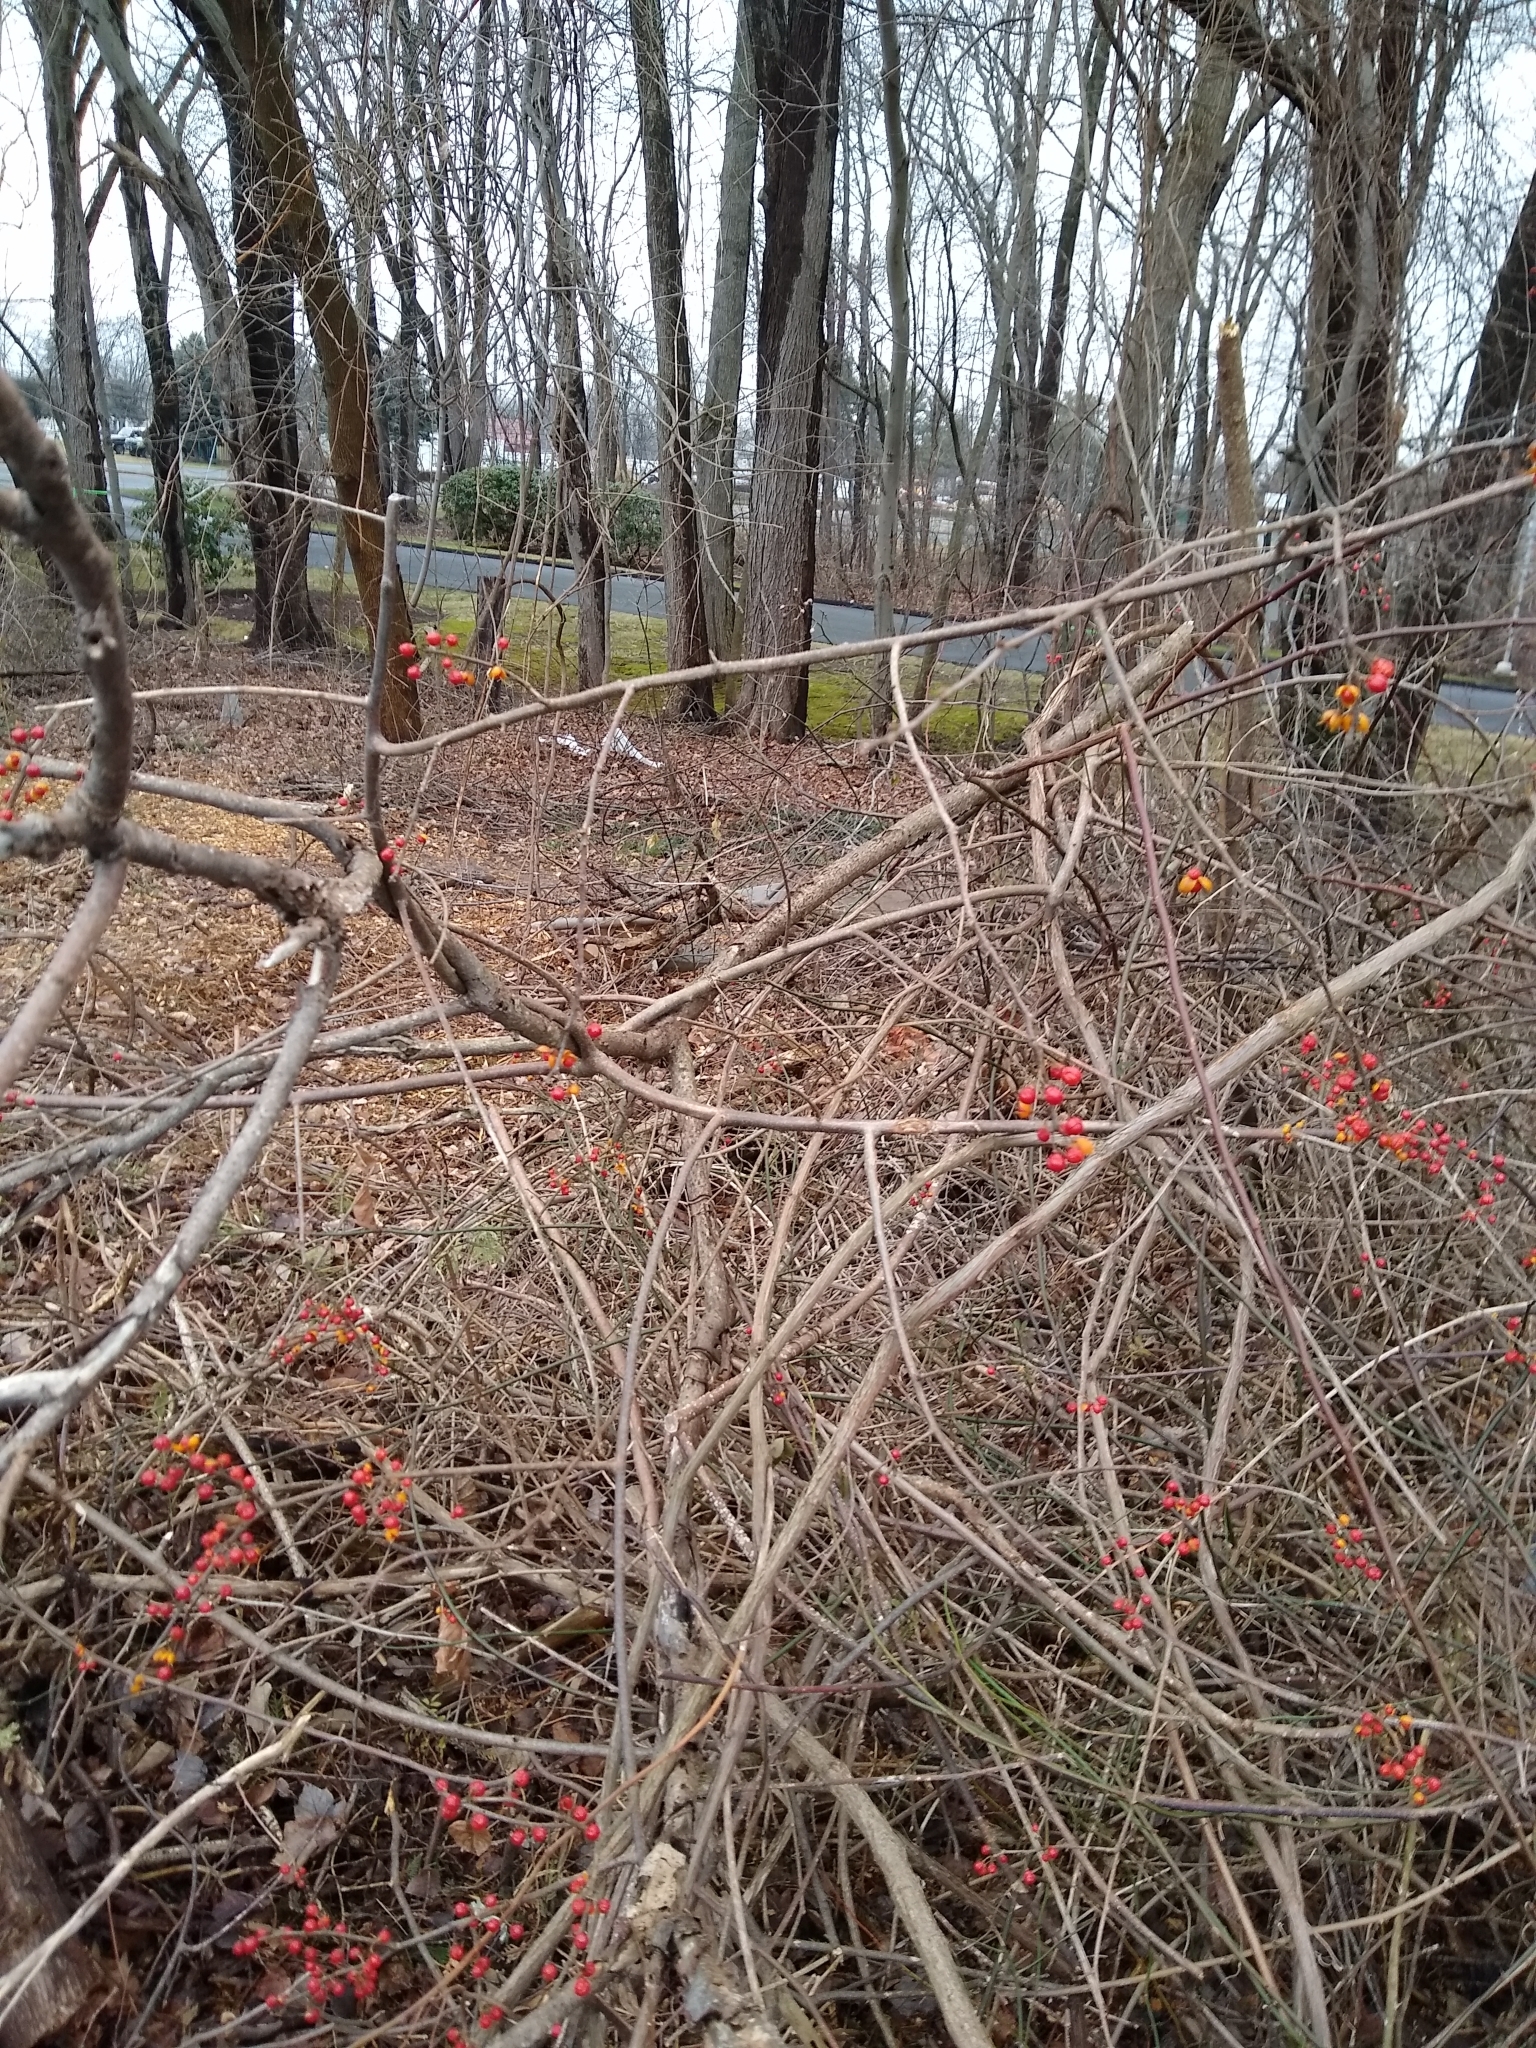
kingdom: Plantae
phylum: Tracheophyta
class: Magnoliopsida
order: Celastrales
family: Celastraceae
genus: Celastrus
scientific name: Celastrus orbiculatus
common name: Oriental bittersweet
